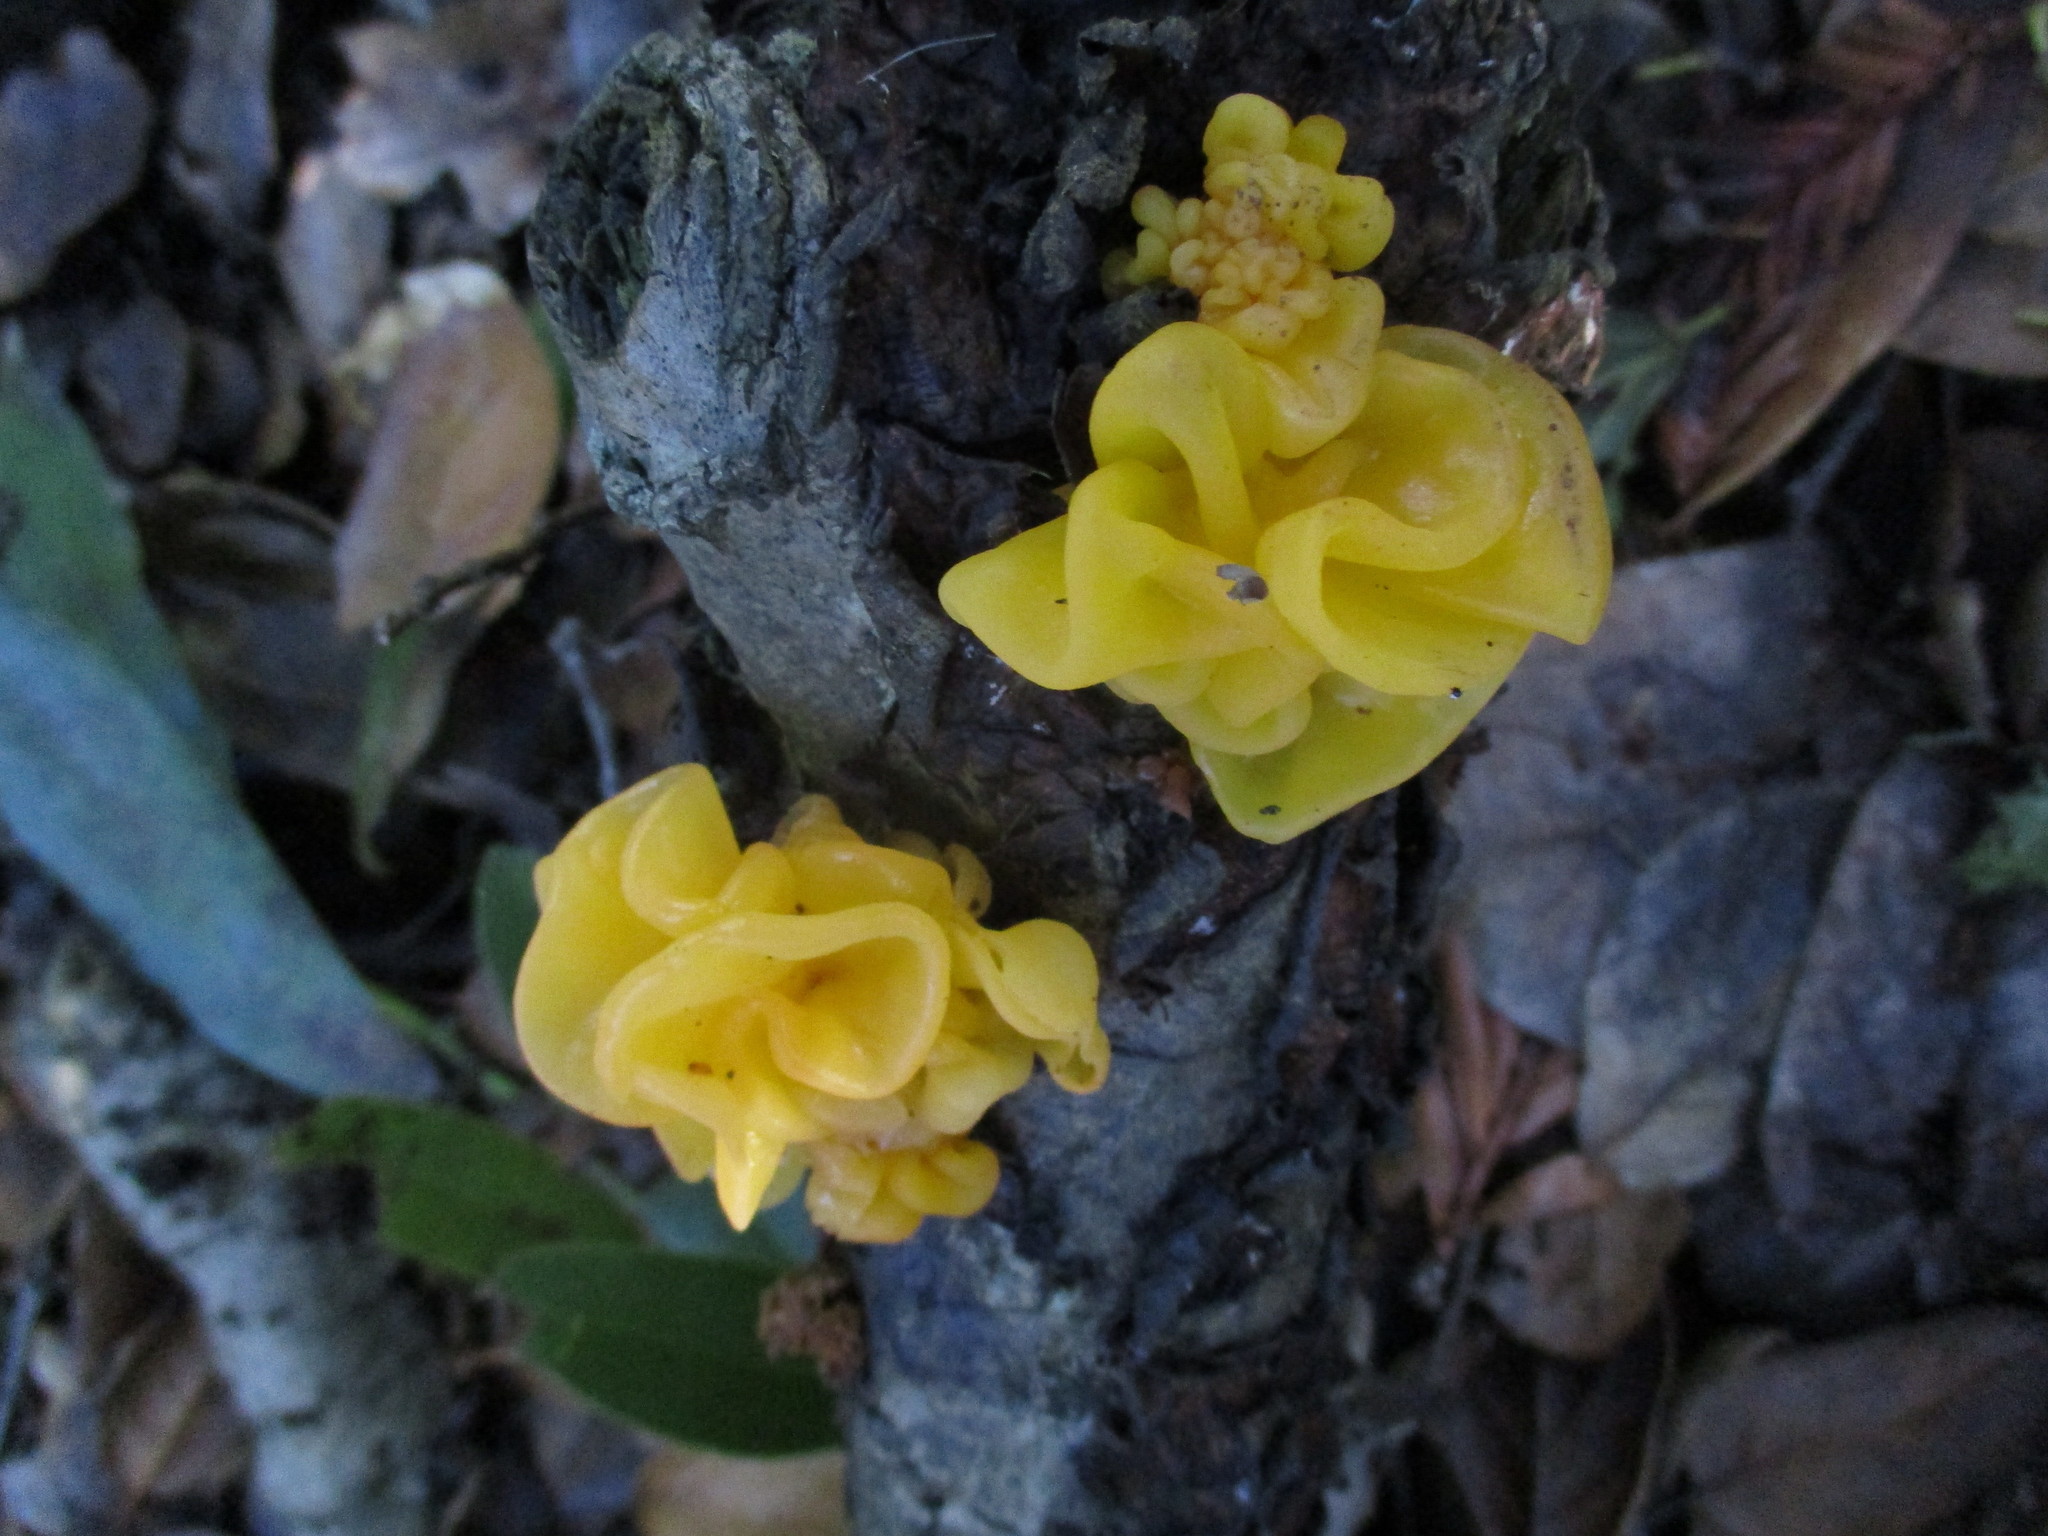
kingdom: Fungi
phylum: Basidiomycota
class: Tremellomycetes
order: Tremellales
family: Naemateliaceae
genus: Naematelia
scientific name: Naematelia aurantia
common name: Golden ear
